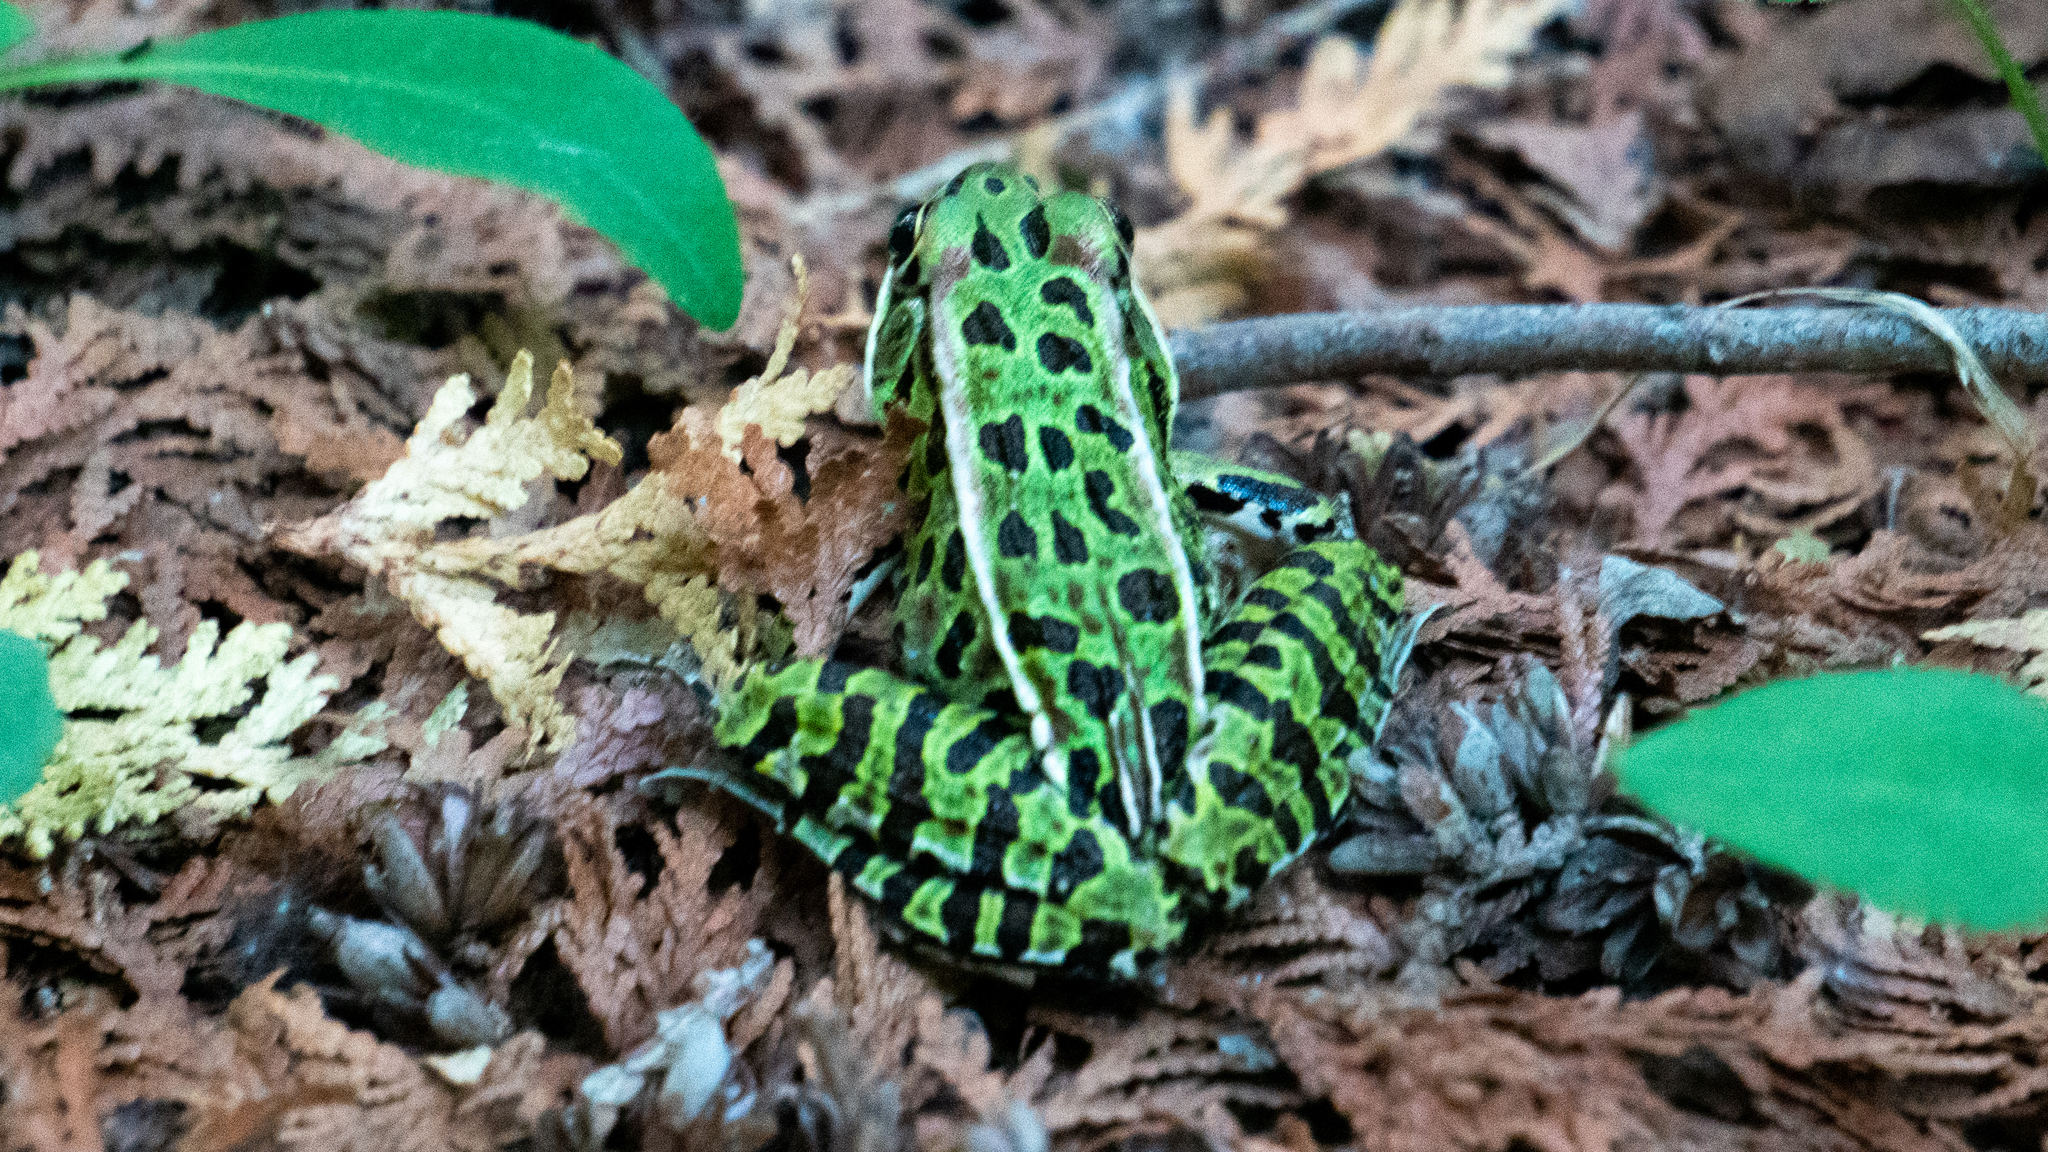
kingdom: Animalia
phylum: Chordata
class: Amphibia
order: Anura
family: Ranidae
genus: Lithobates
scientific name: Lithobates pipiens
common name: Northern leopard frog
